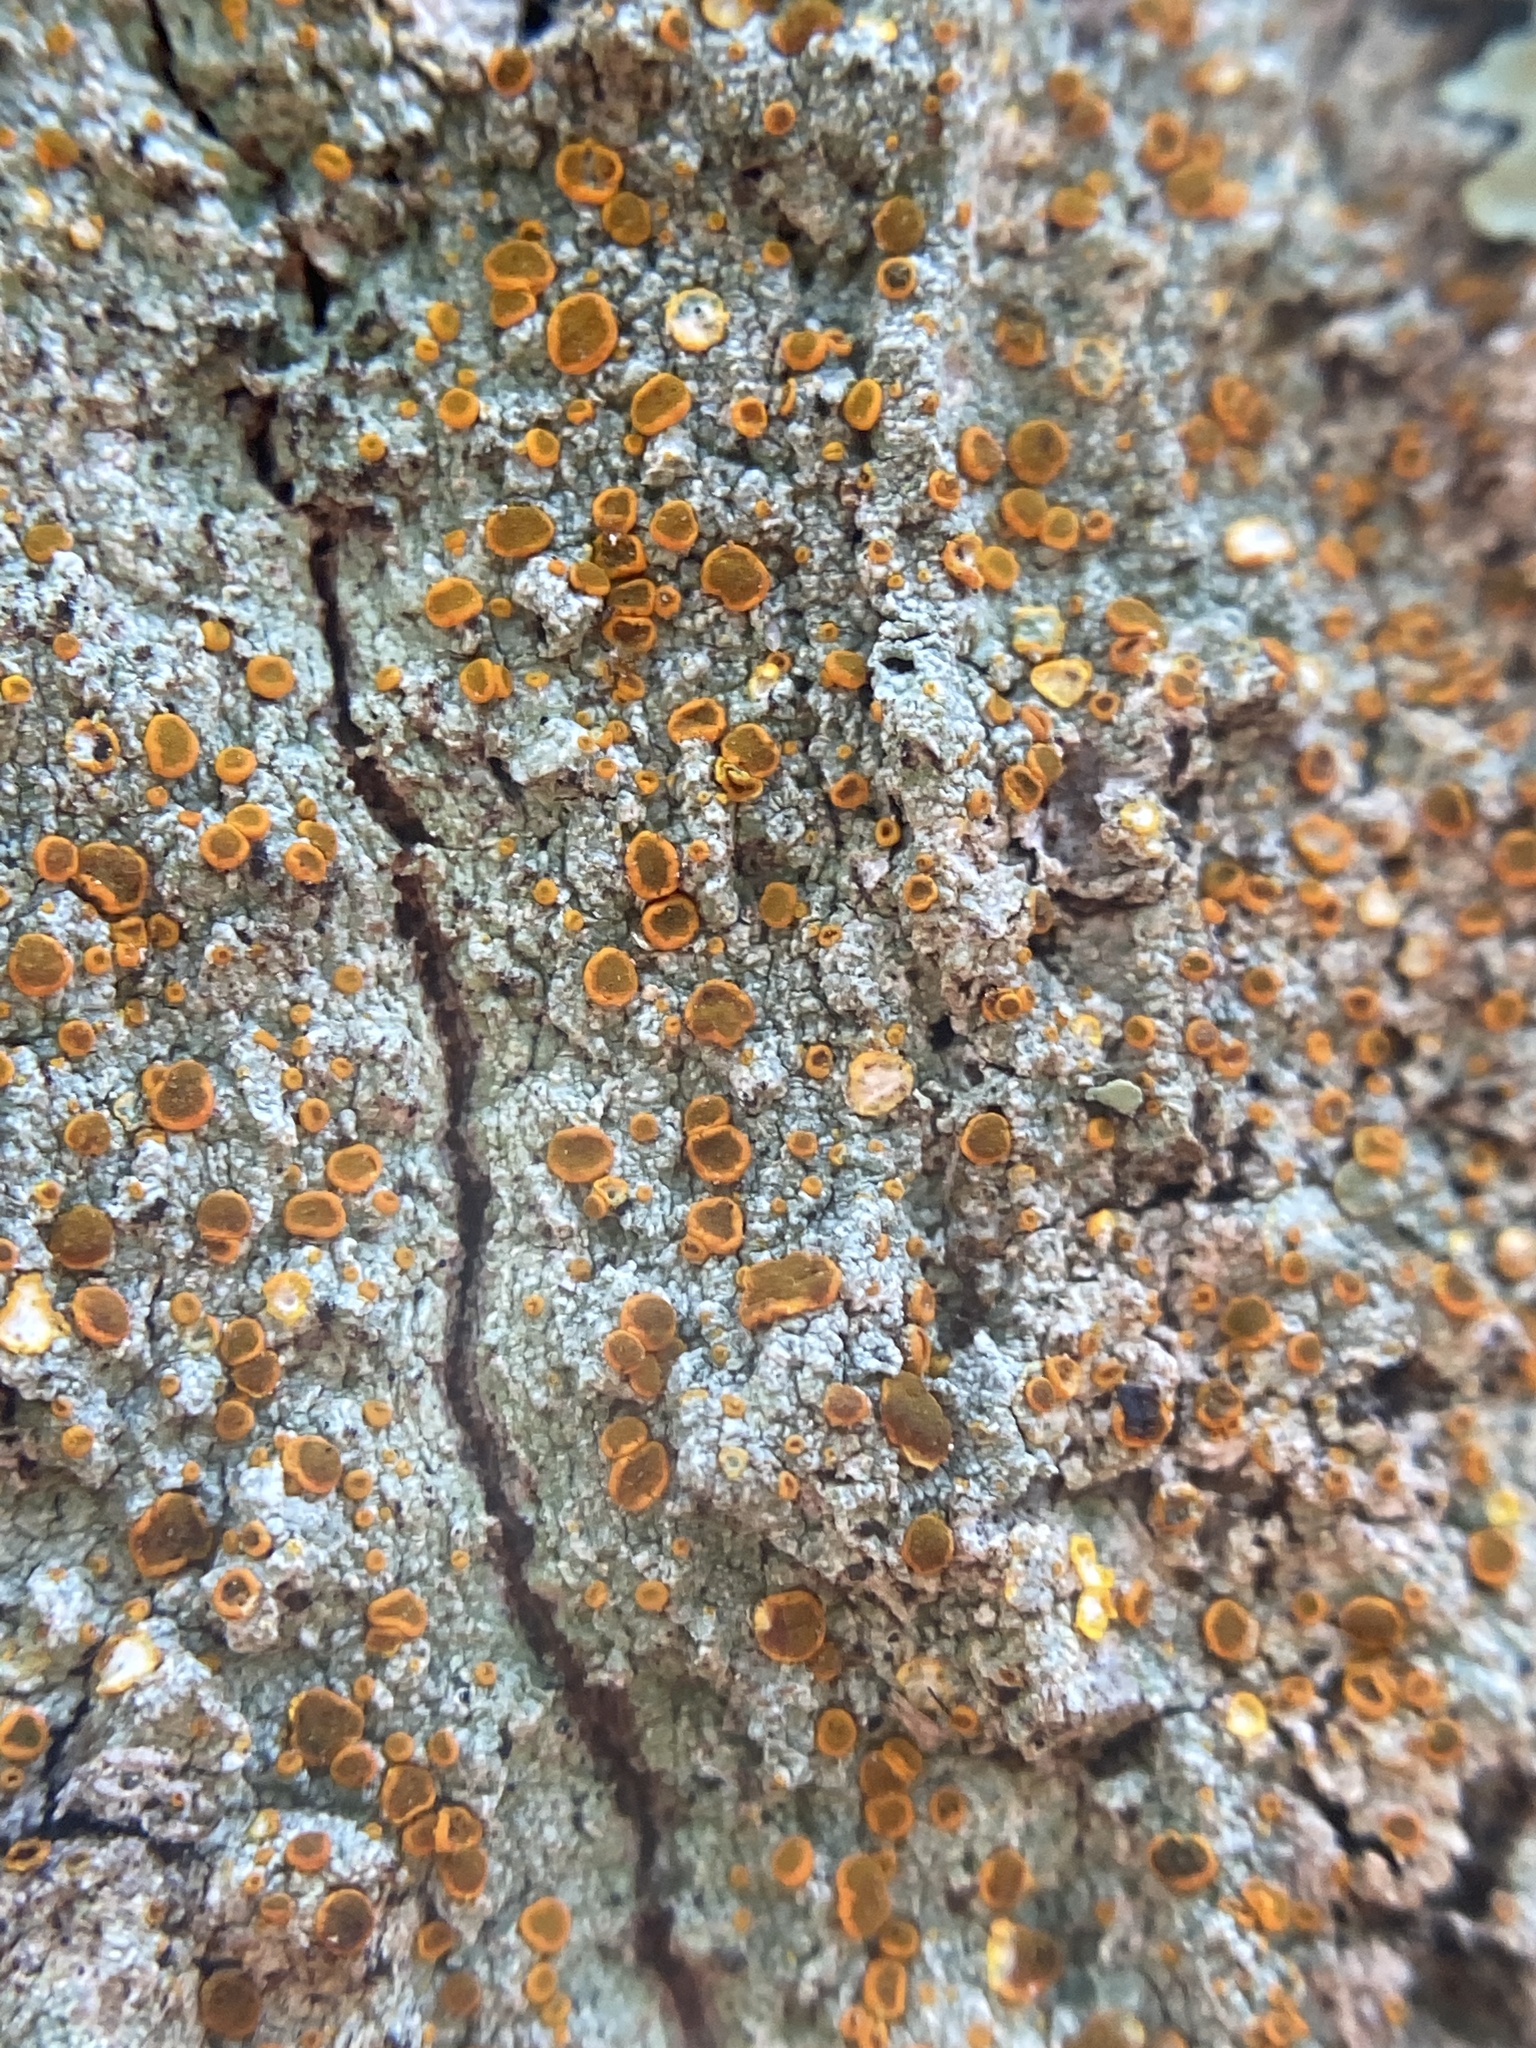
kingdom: Fungi
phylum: Ascomycota
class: Lecanoromycetes
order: Teloschistales
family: Brigantiaeaceae
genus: Brigantiaea
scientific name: Brigantiaea leucoxantha
